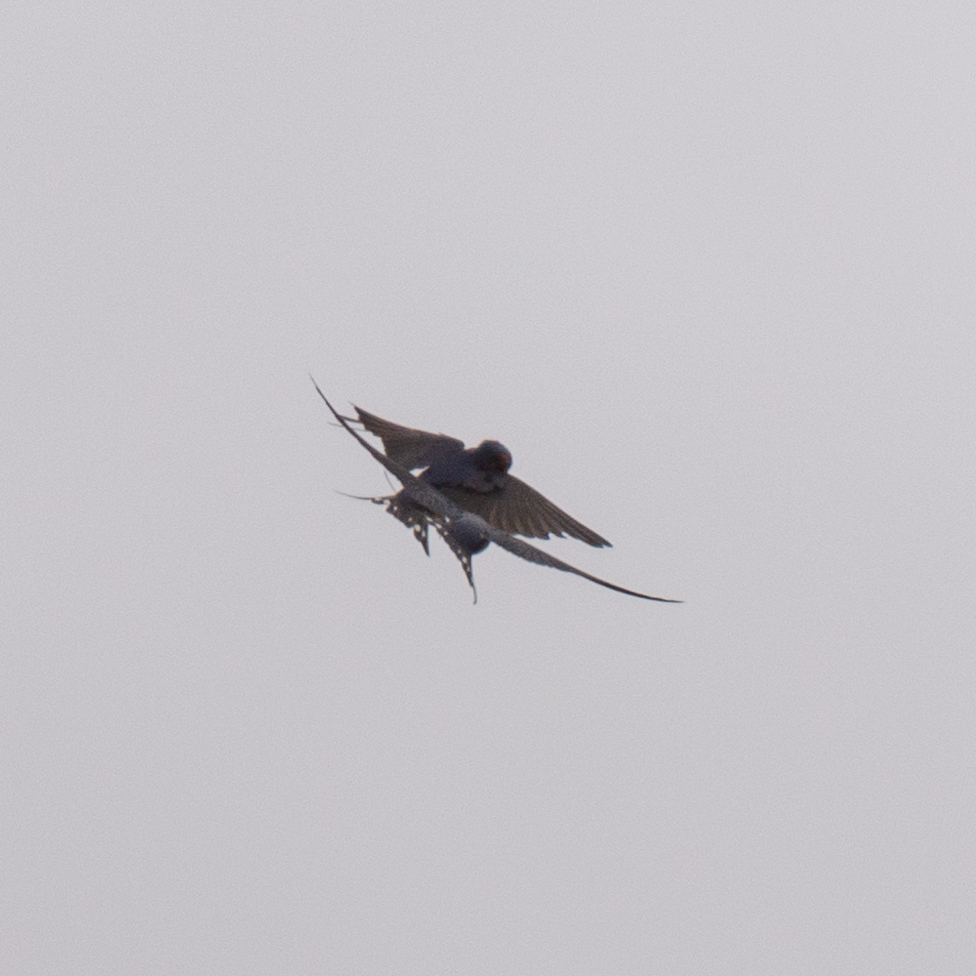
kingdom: Animalia
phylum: Chordata
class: Aves
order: Passeriformes
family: Hirundinidae
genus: Hirundo
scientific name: Hirundo rustica
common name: Barn swallow
